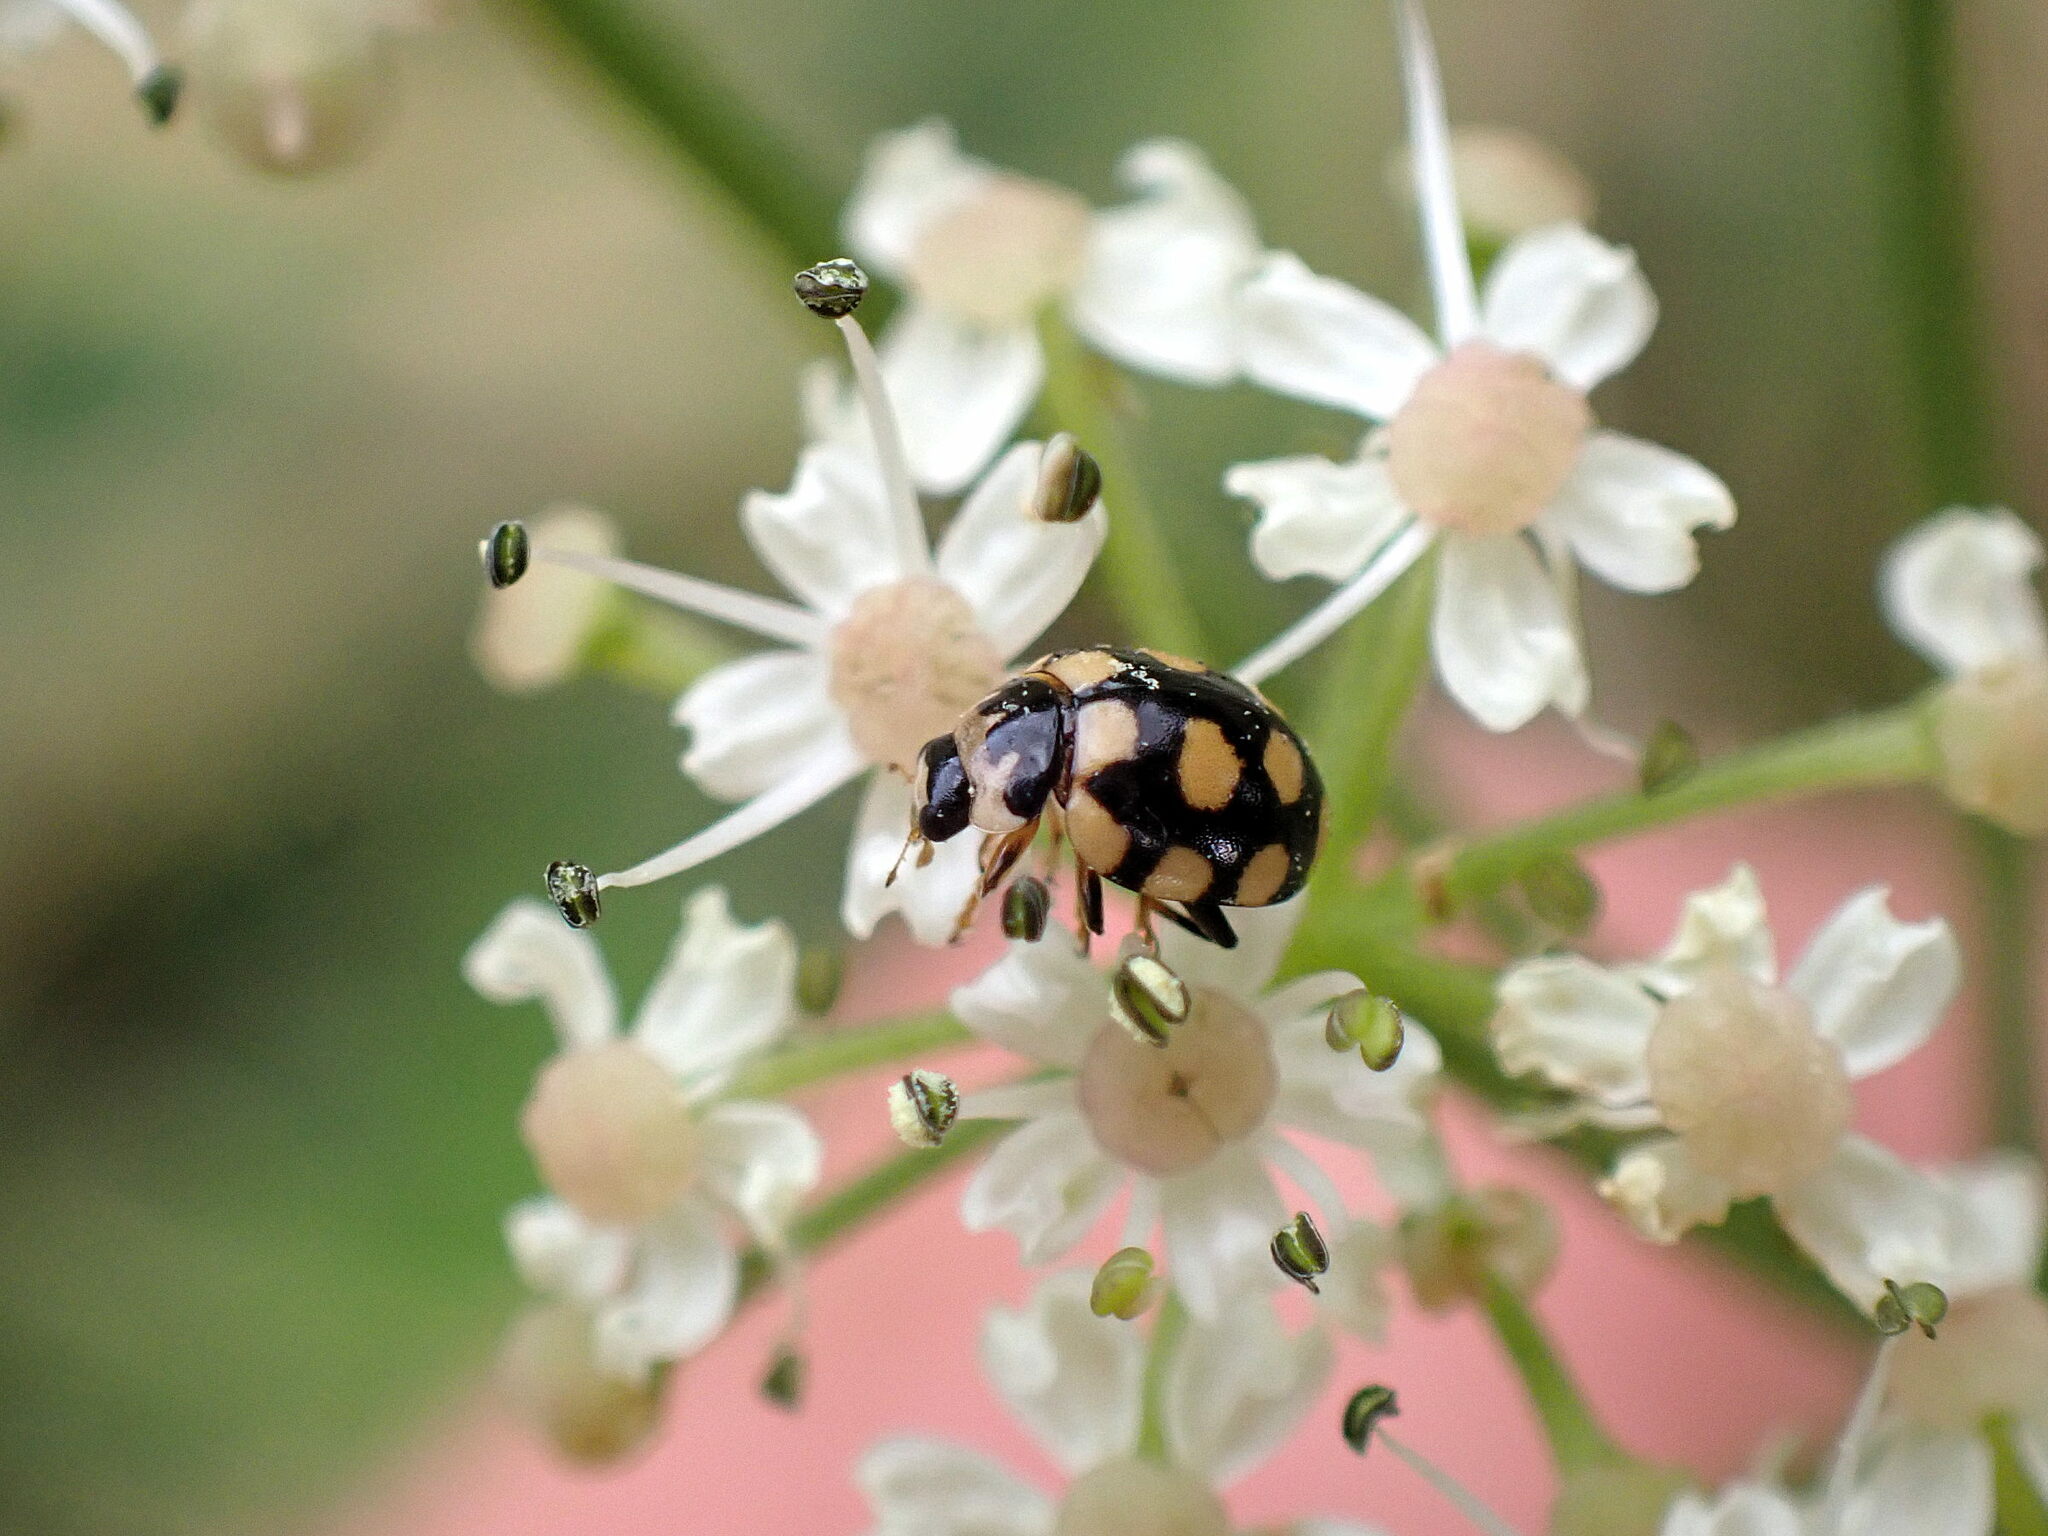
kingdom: Animalia
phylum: Arthropoda
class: Insecta
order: Coleoptera
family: Coccinellidae
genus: Coccinula
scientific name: Coccinula quatuordecimpustulata
